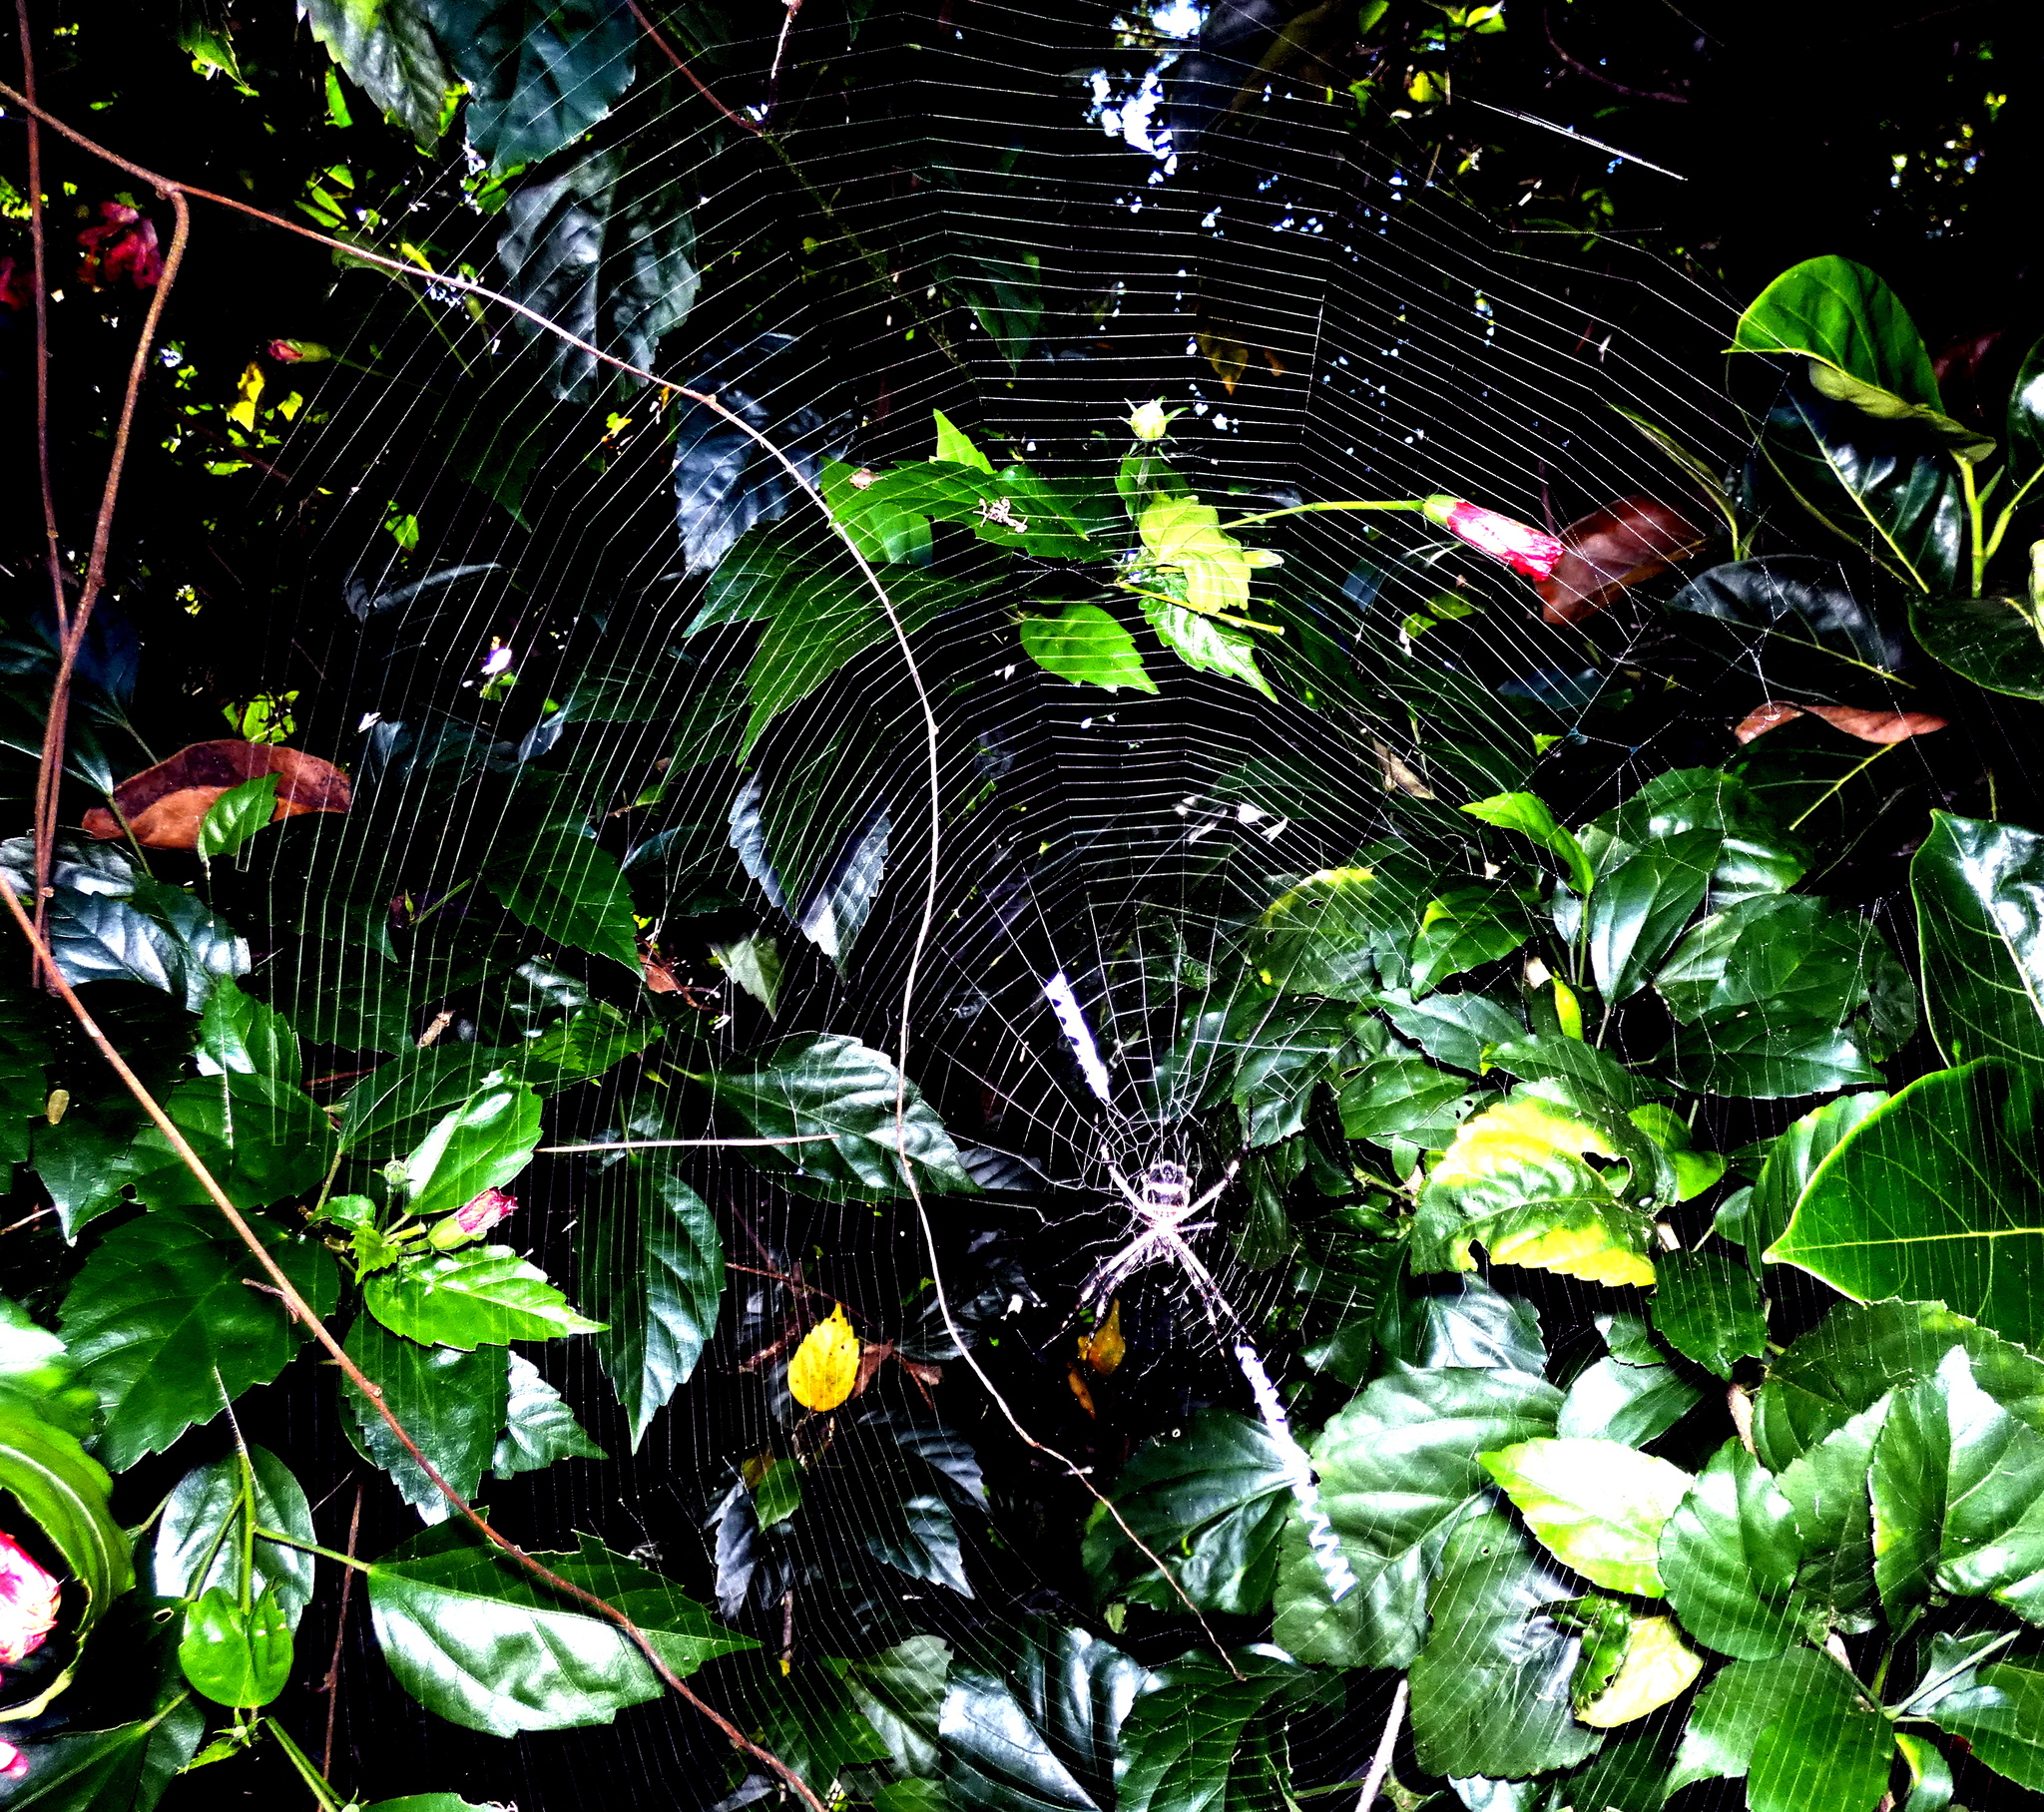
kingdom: Animalia
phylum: Arthropoda
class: Arachnida
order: Araneae
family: Araneidae
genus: Argiope
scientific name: Argiope argentata
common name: Orb weavers
